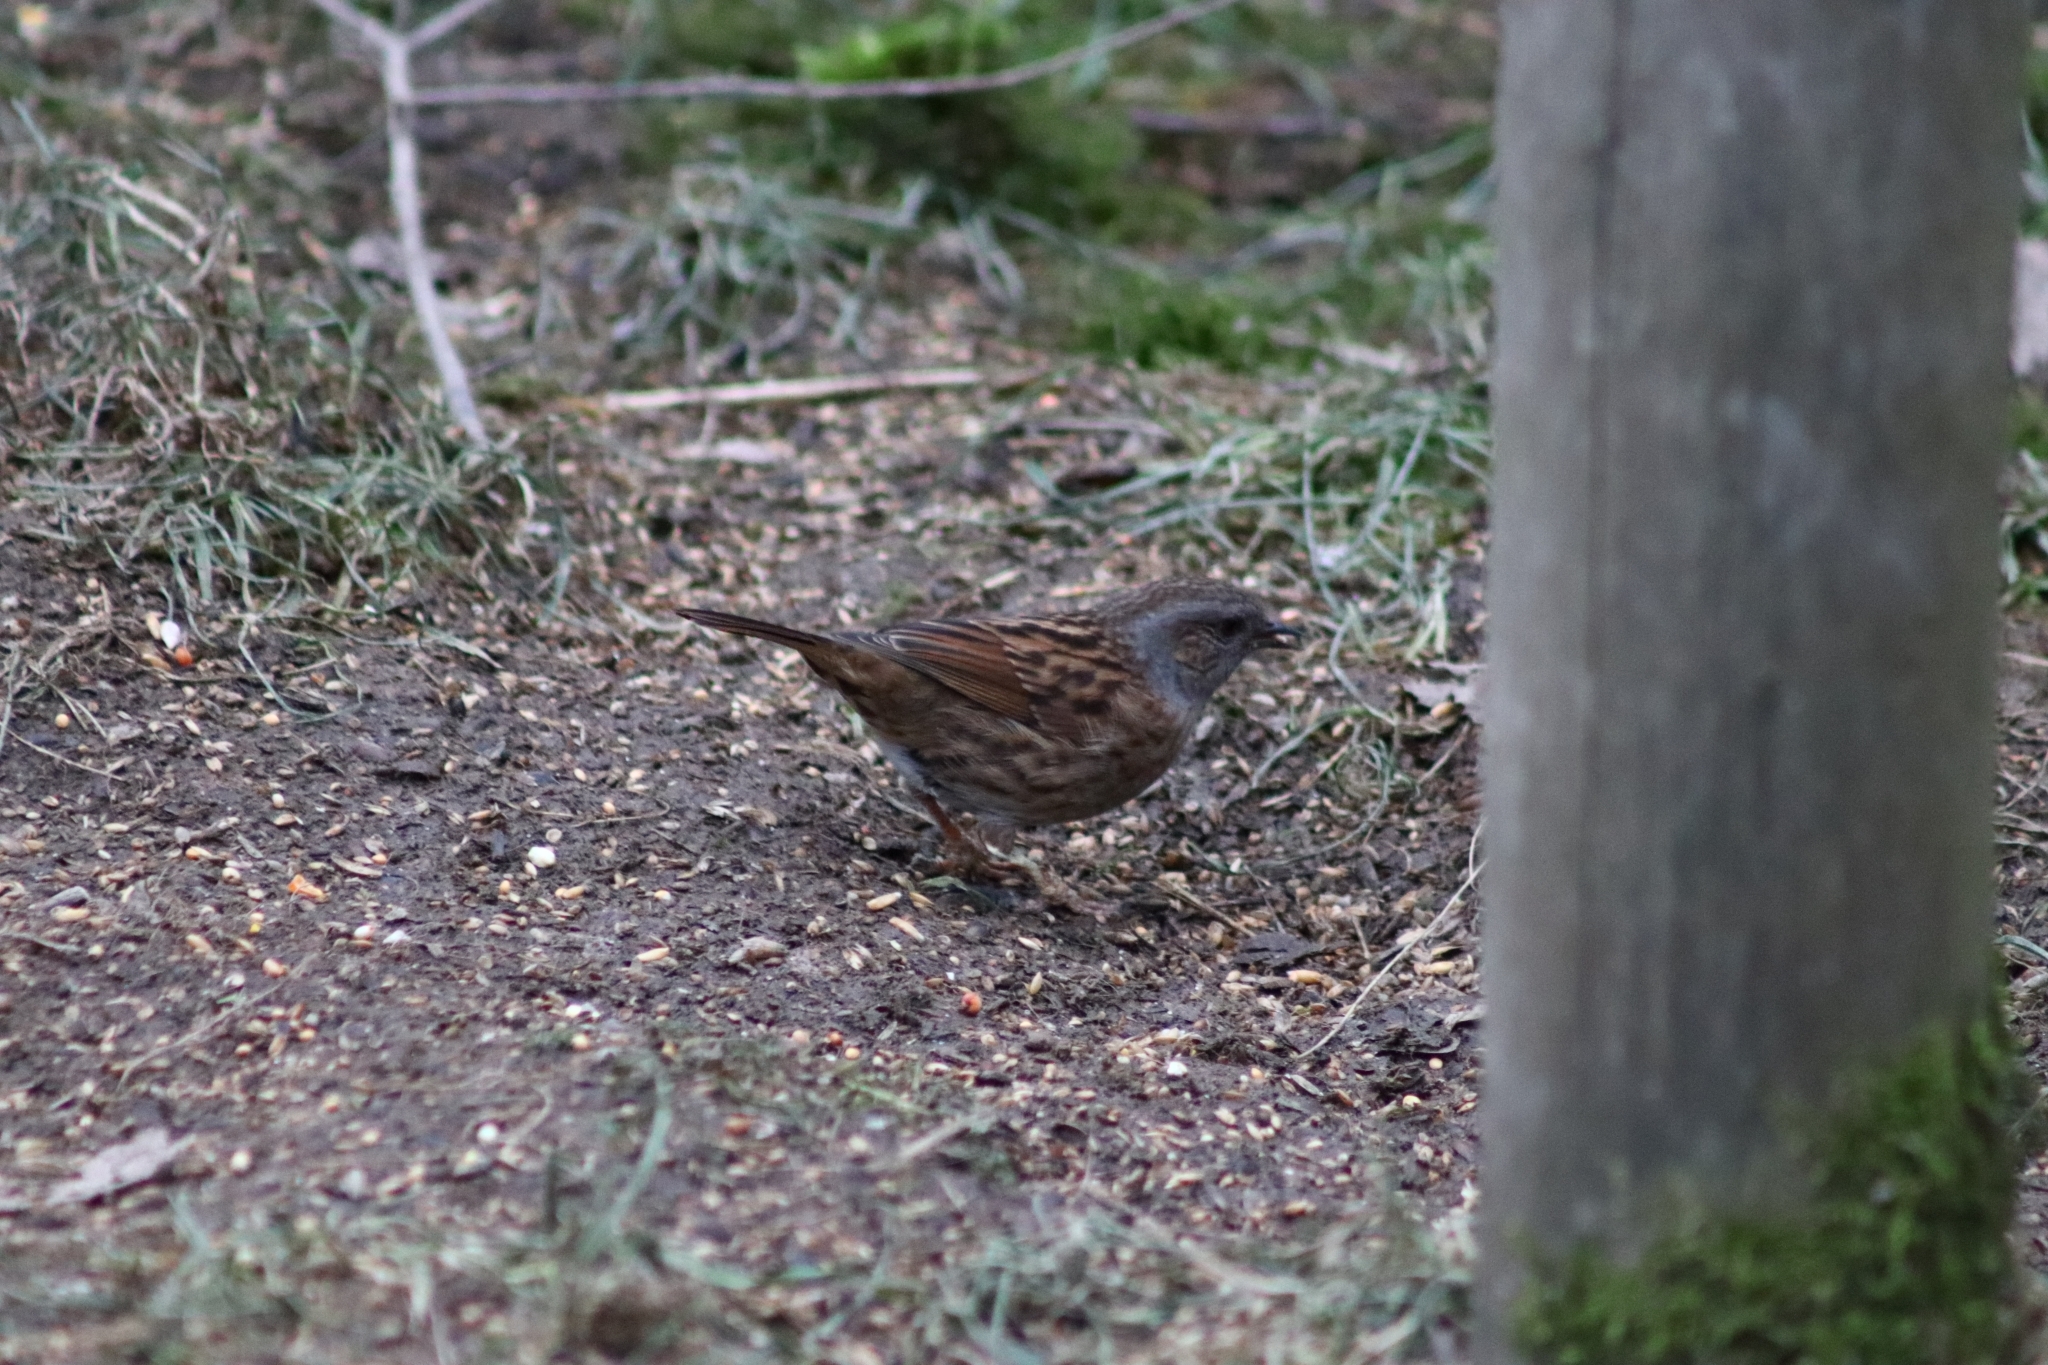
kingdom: Animalia
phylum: Chordata
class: Aves
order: Passeriformes
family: Prunellidae
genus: Prunella
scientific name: Prunella modularis
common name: Dunnock
